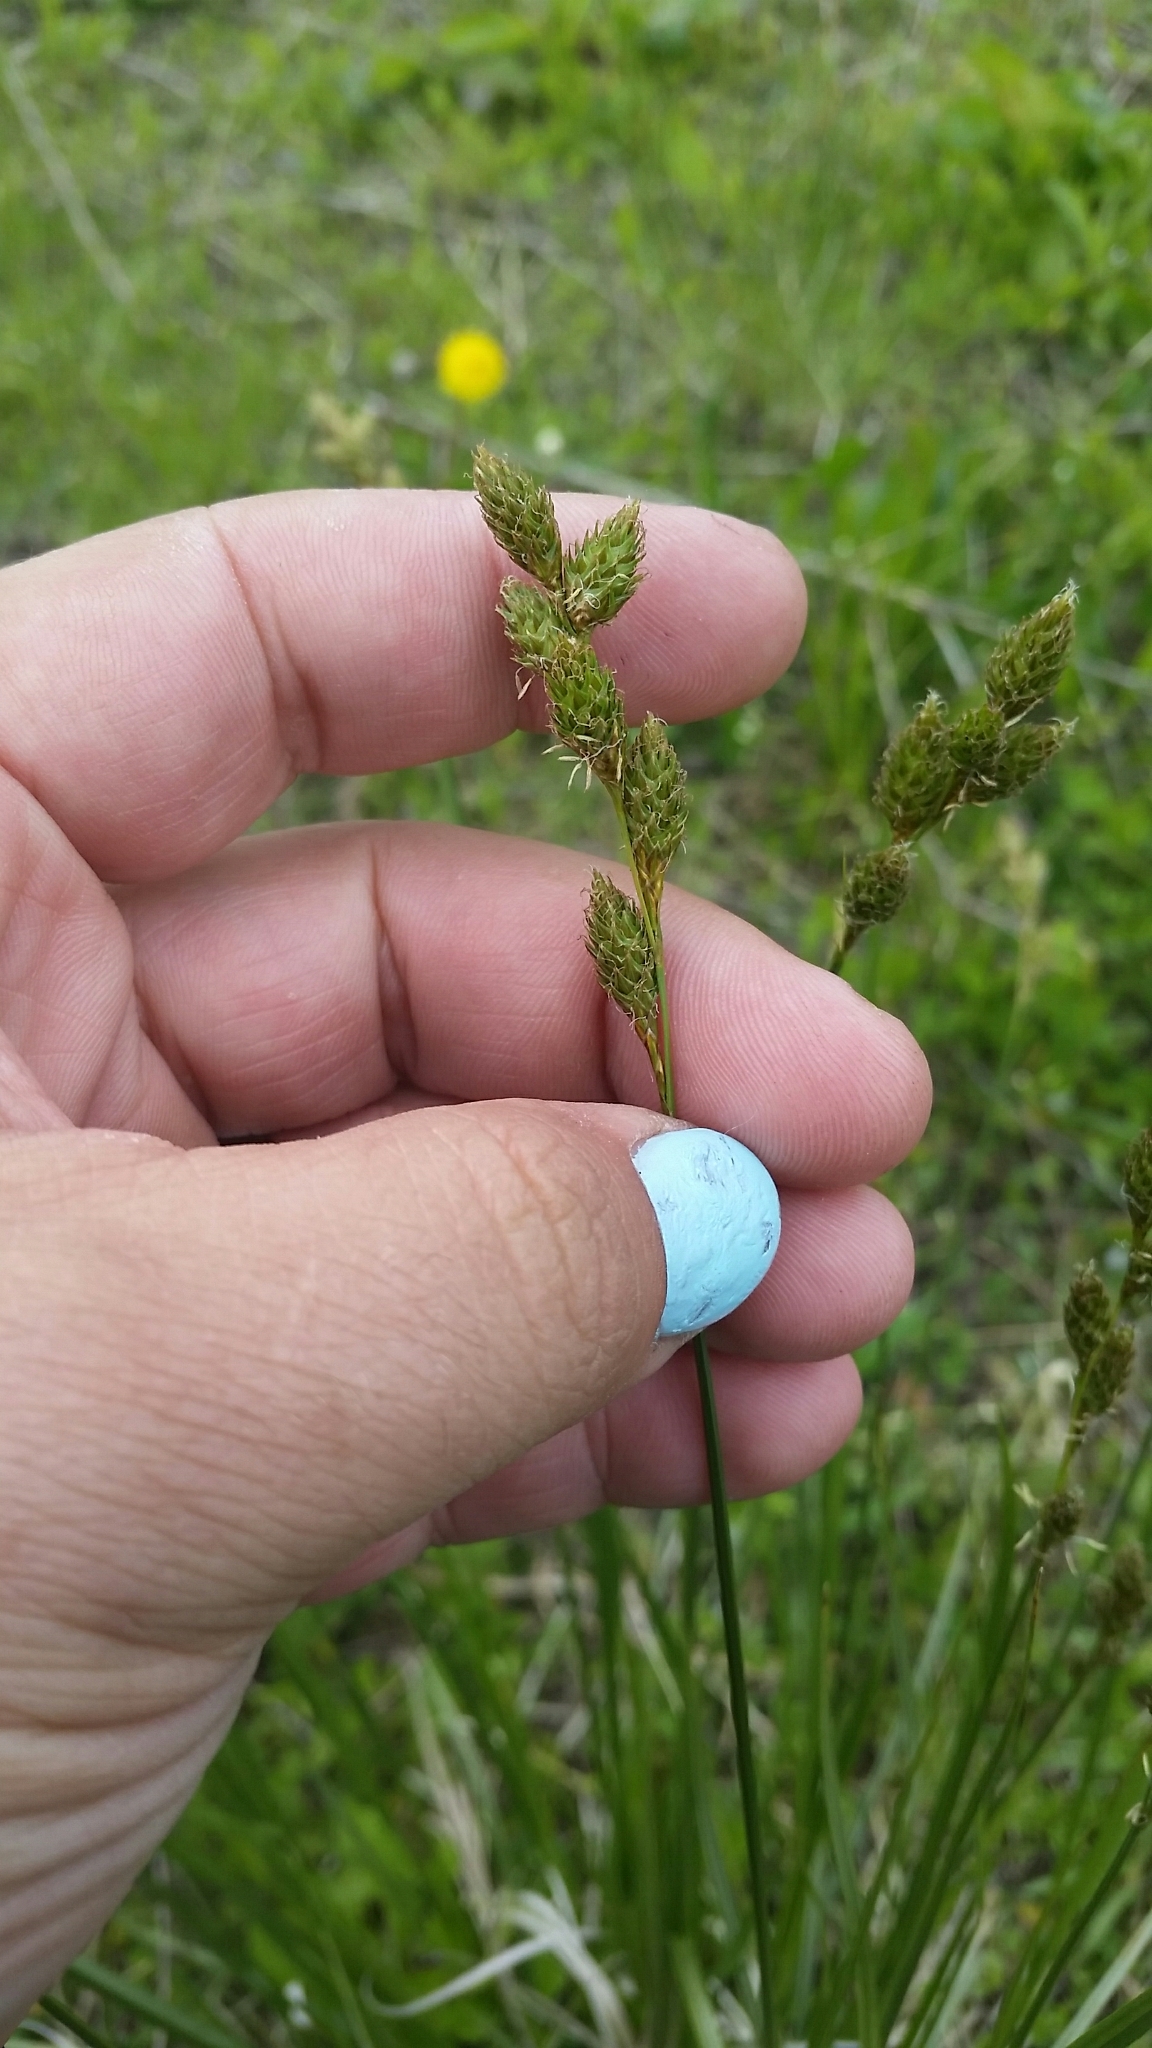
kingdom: Plantae
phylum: Tracheophyta
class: Liliopsida
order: Poales
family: Cyperaceae
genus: Carex
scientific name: Carex bicknellii
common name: Bicknell's sedge
